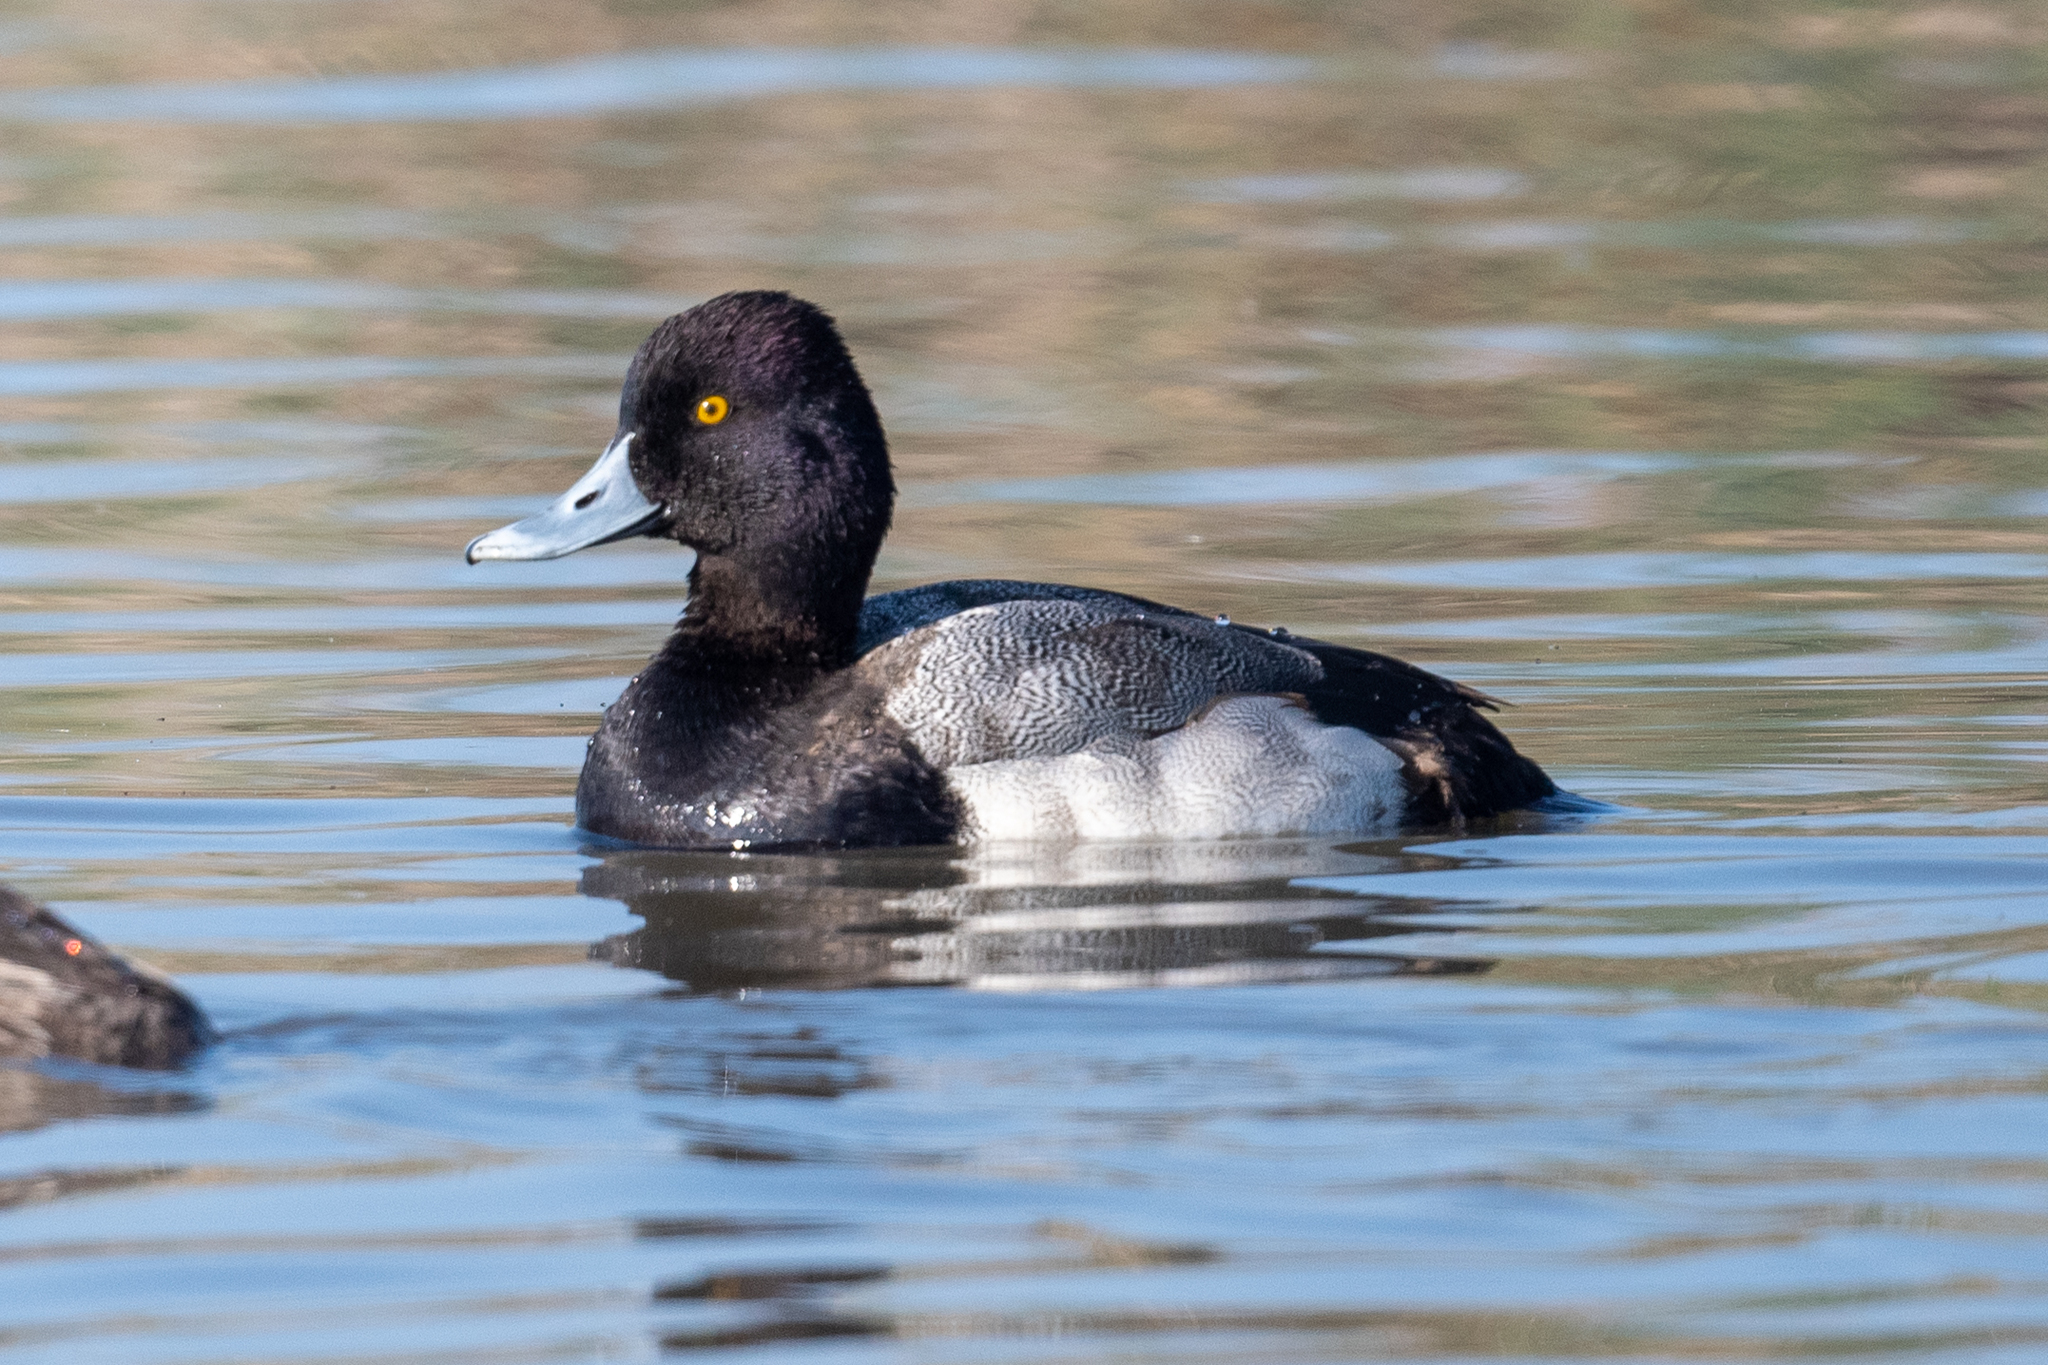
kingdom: Animalia
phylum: Chordata
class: Aves
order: Anseriformes
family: Anatidae
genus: Aythya
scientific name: Aythya affinis
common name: Lesser scaup
